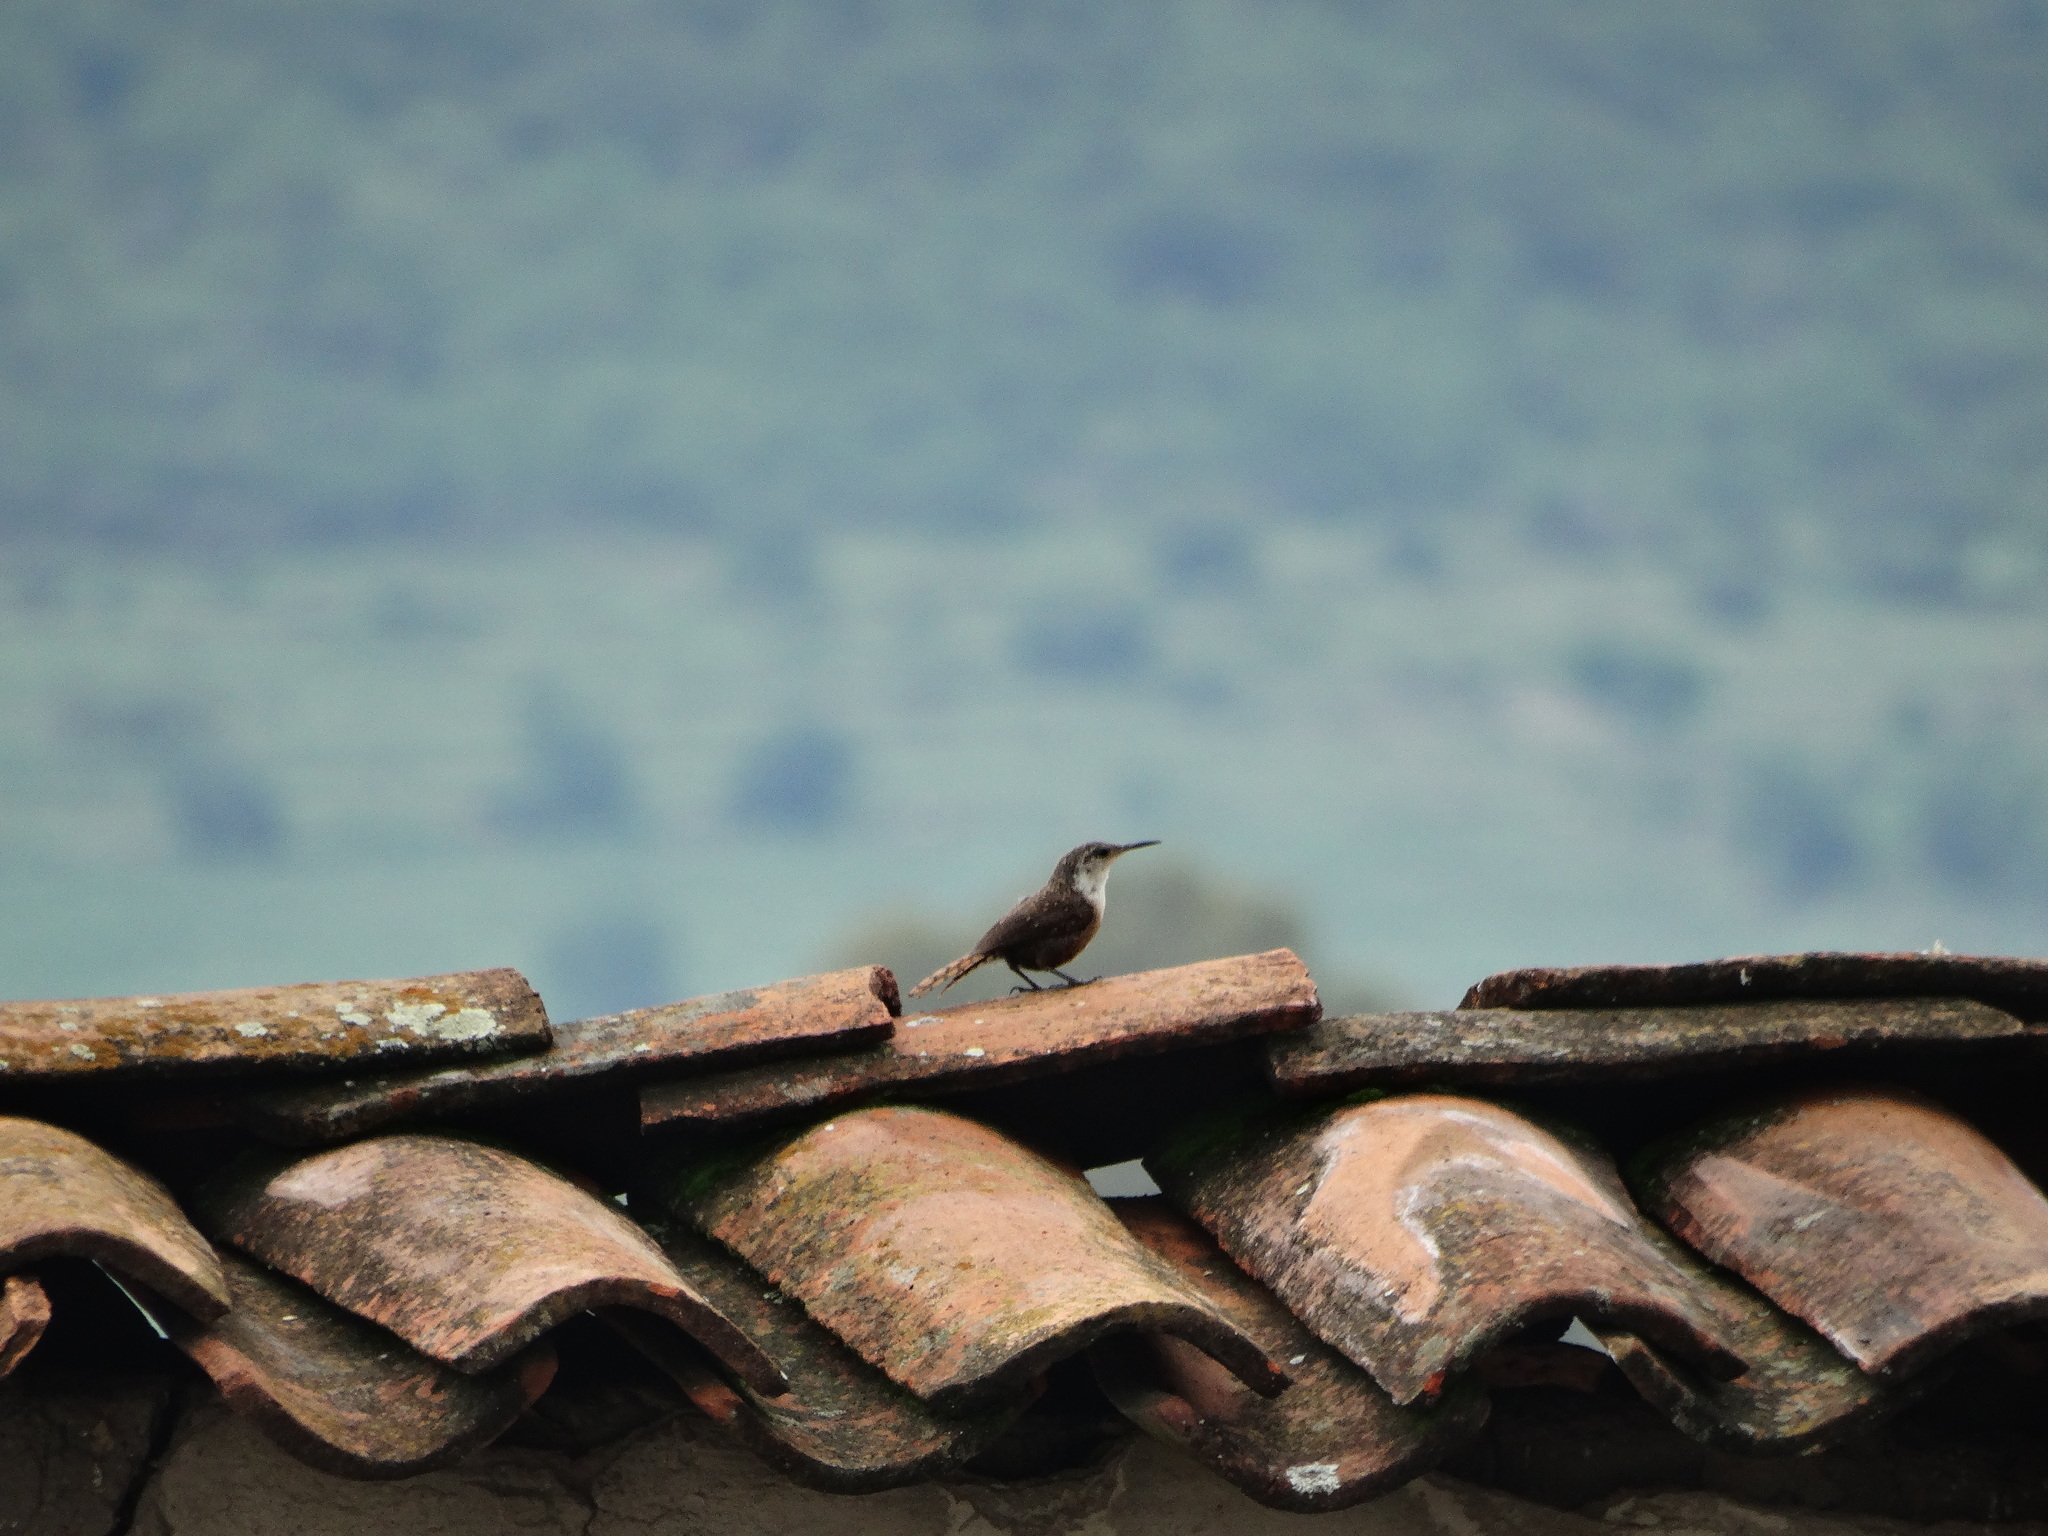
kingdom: Animalia
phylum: Chordata
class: Aves
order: Passeriformes
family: Troglodytidae
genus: Catherpes
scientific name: Catherpes mexicanus
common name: Canyon wren
